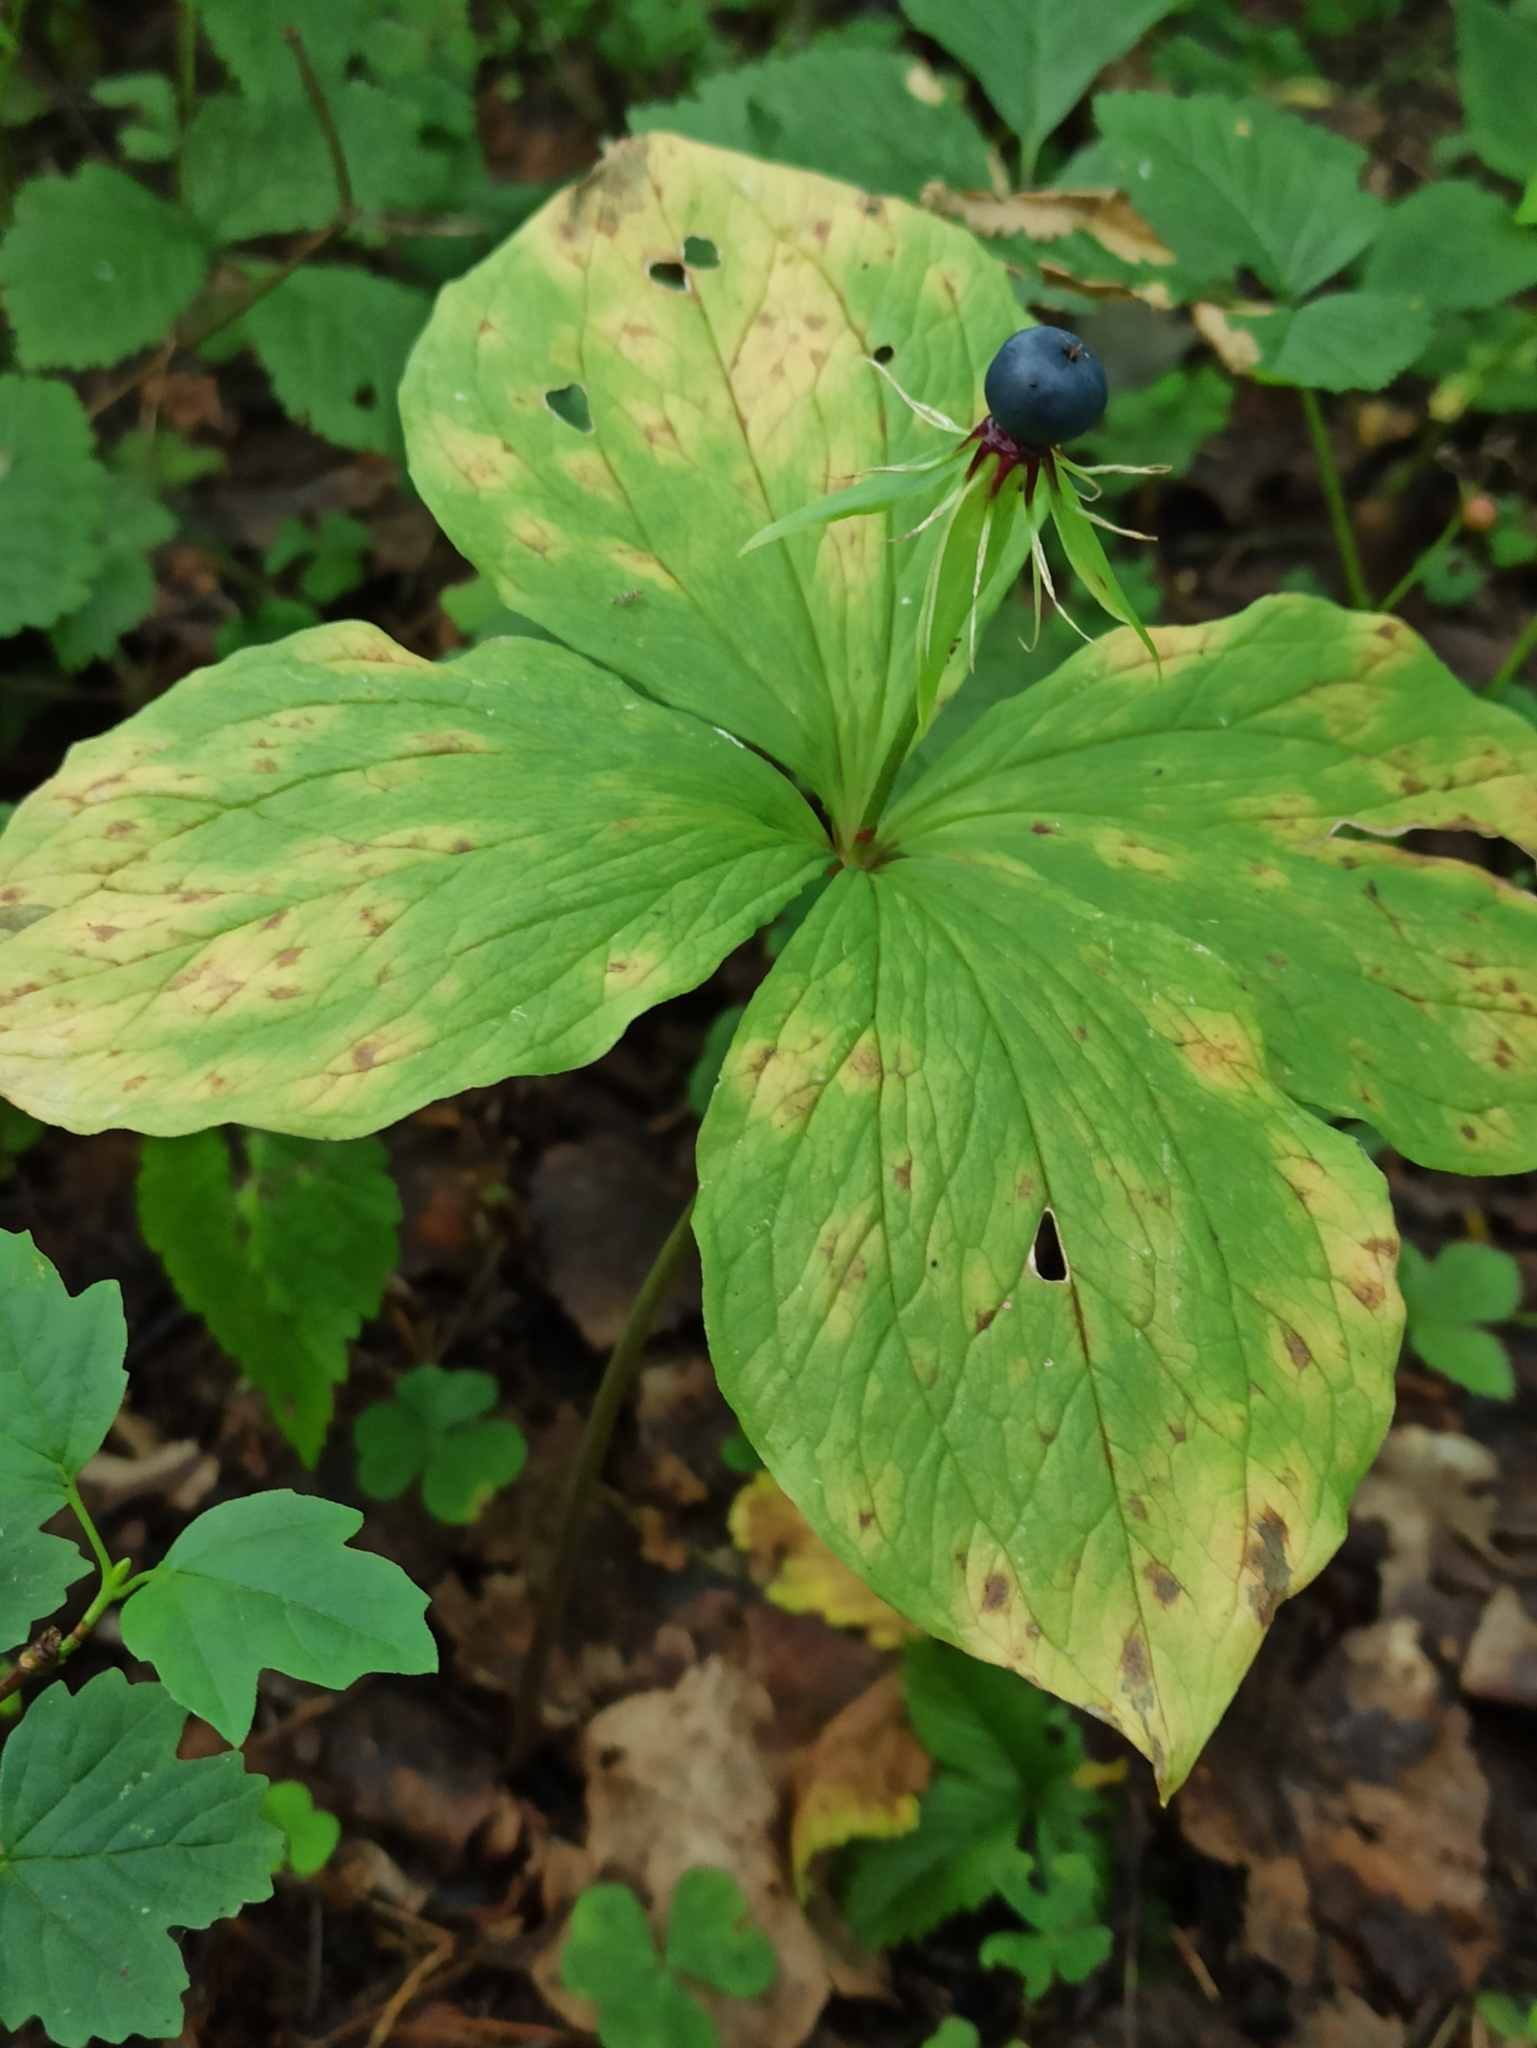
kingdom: Plantae
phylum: Tracheophyta
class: Liliopsida
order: Liliales
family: Melanthiaceae
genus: Paris
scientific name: Paris quadrifolia
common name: Herb-paris
